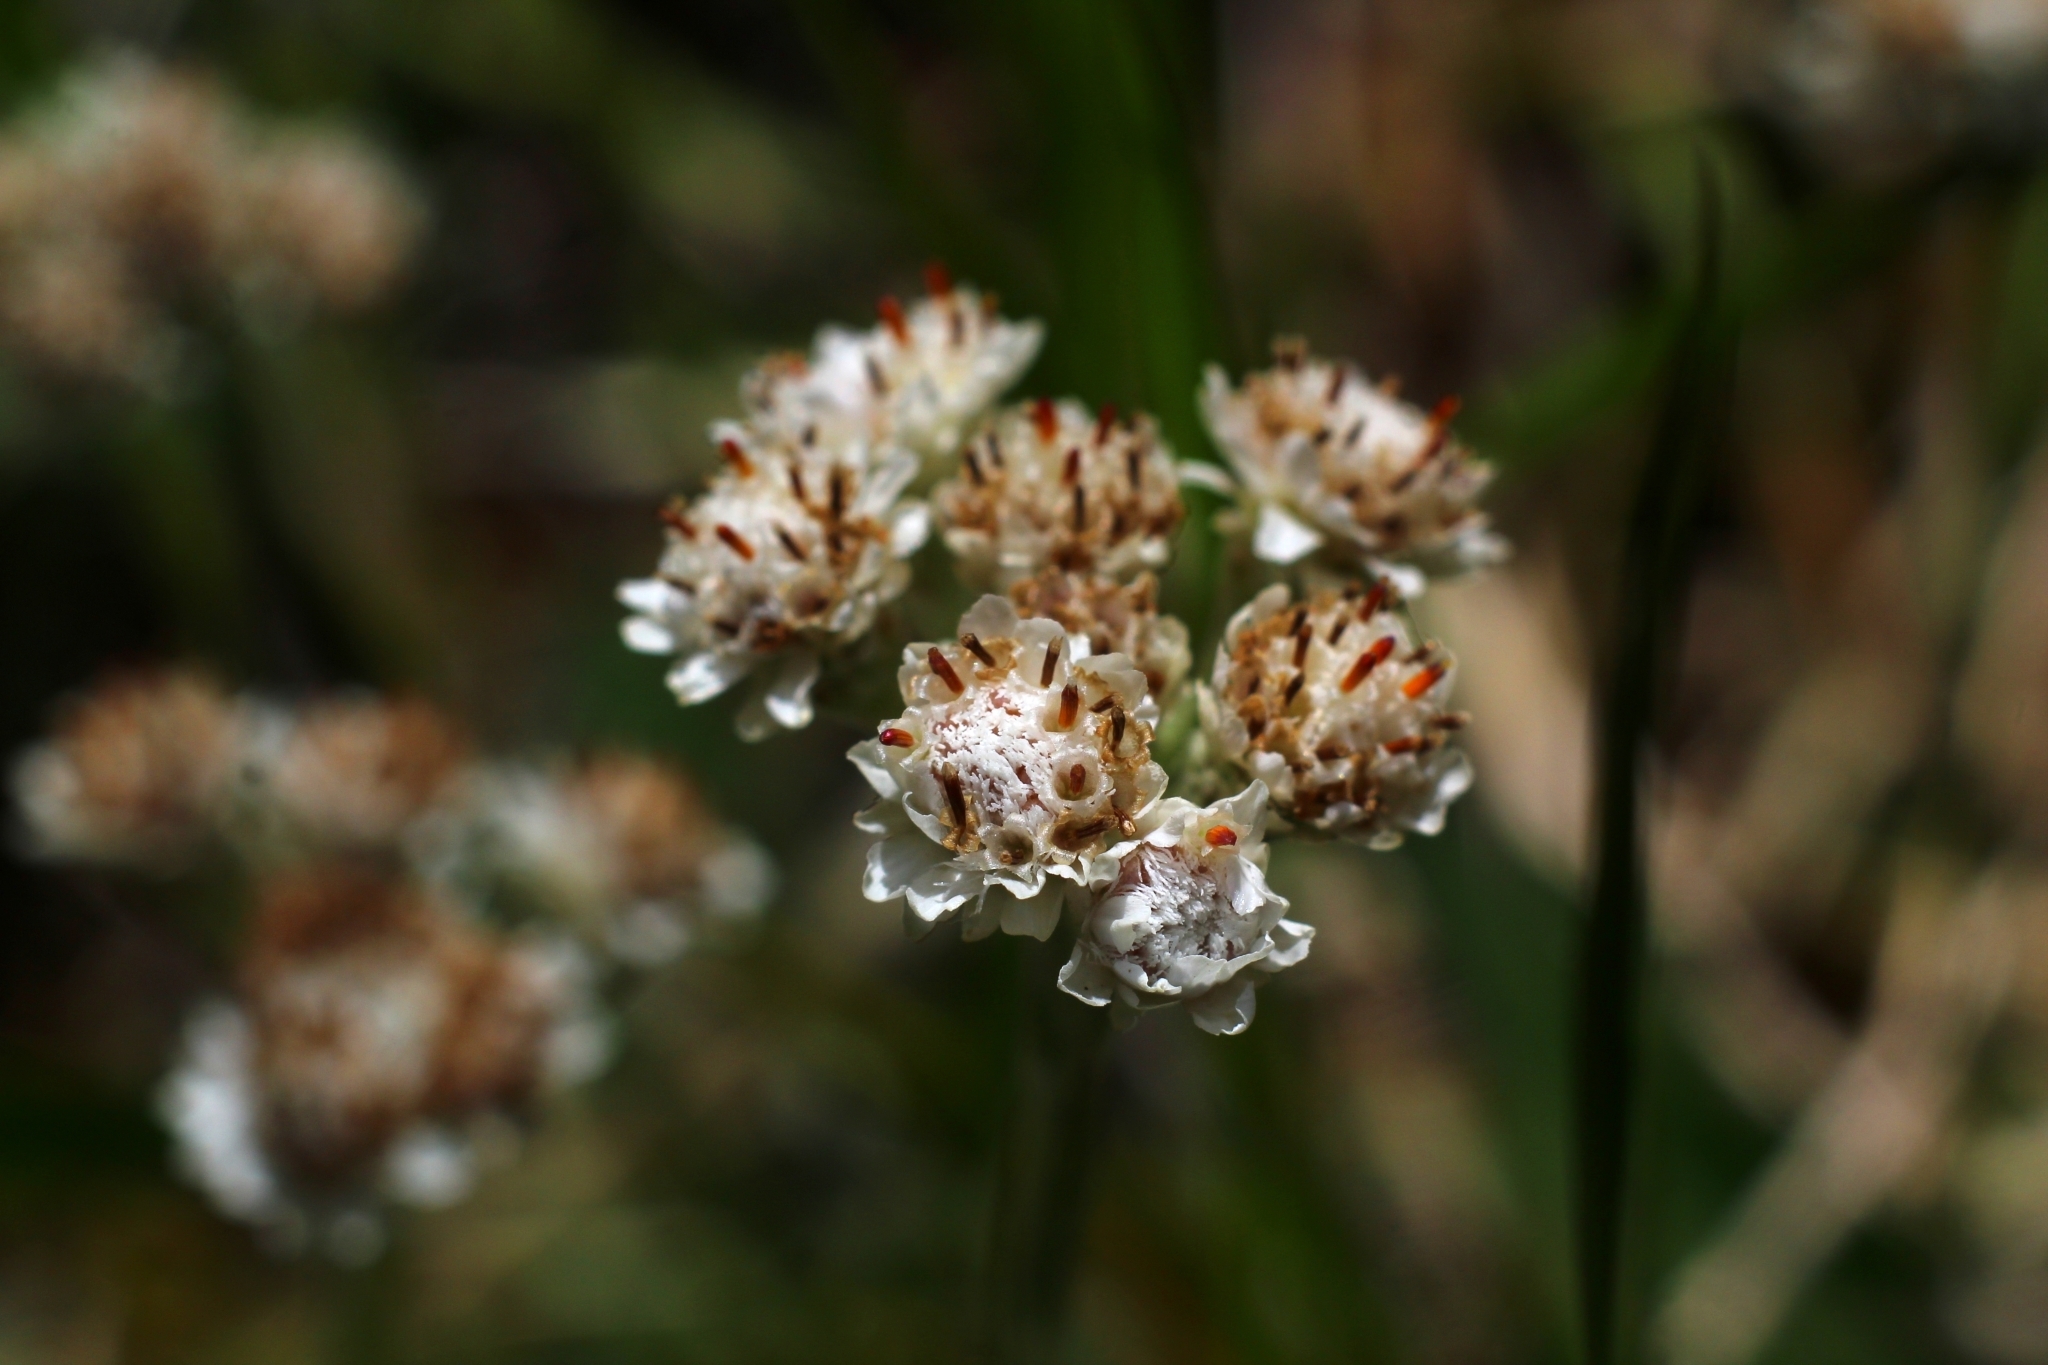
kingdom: Plantae
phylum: Tracheophyta
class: Magnoliopsida
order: Asterales
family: Asteraceae
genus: Antennaria
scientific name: Antennaria dioica
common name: Mountain everlasting
